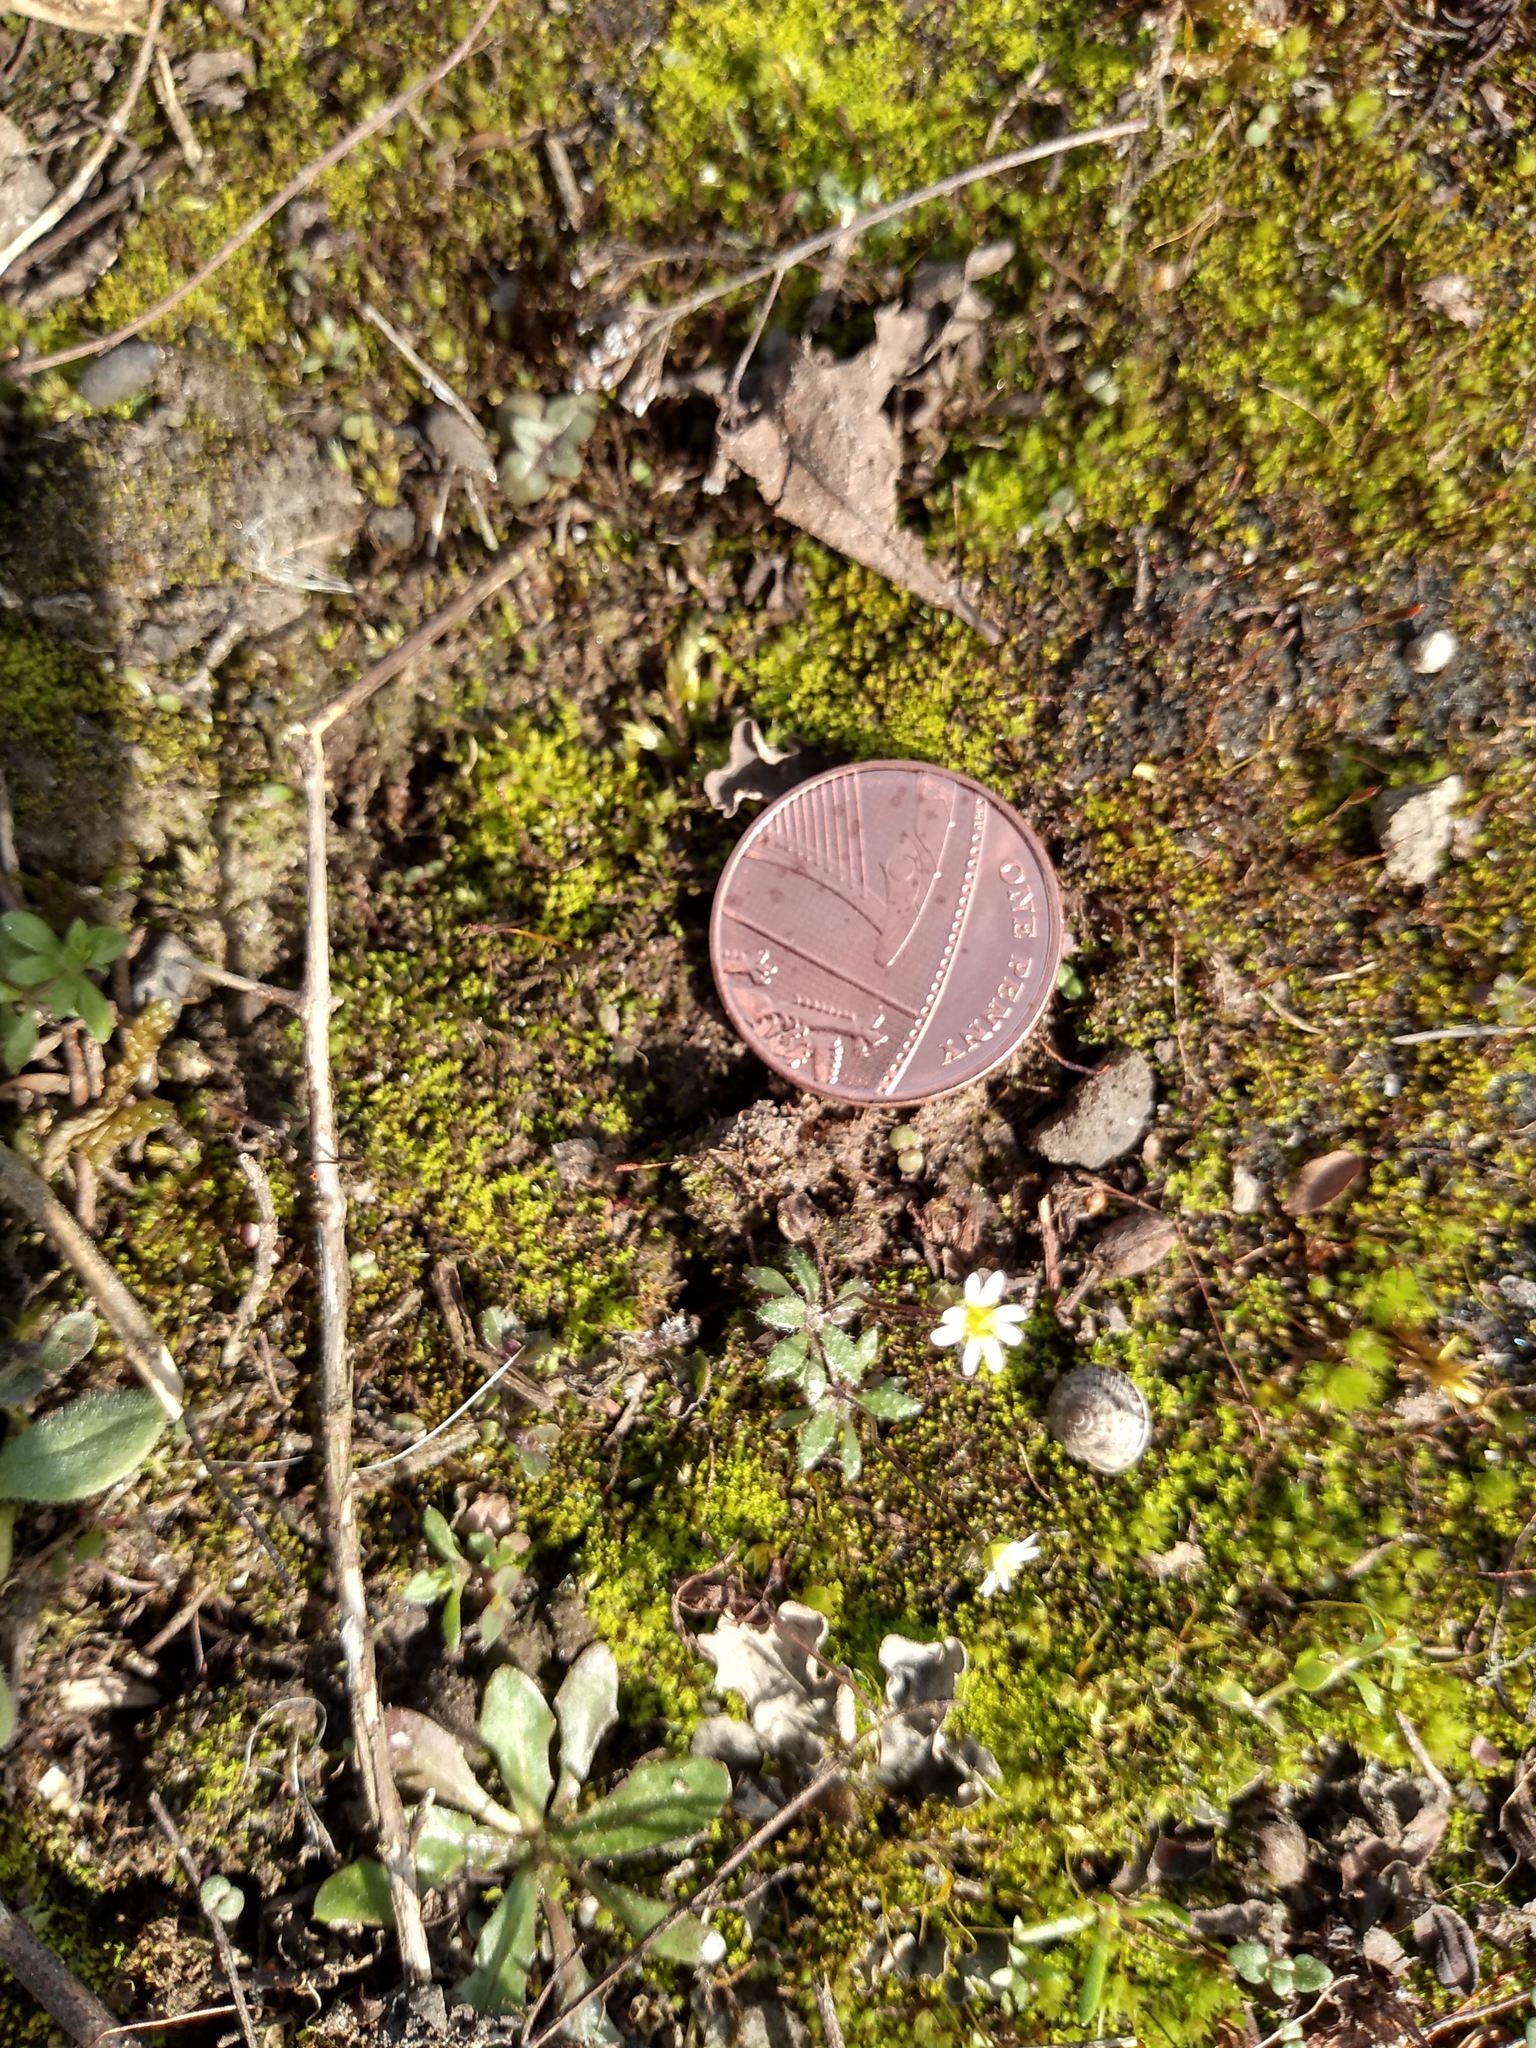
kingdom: Plantae
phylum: Tracheophyta
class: Magnoliopsida
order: Brassicales
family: Brassicaceae
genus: Draba
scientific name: Draba verna
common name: Spring draba
